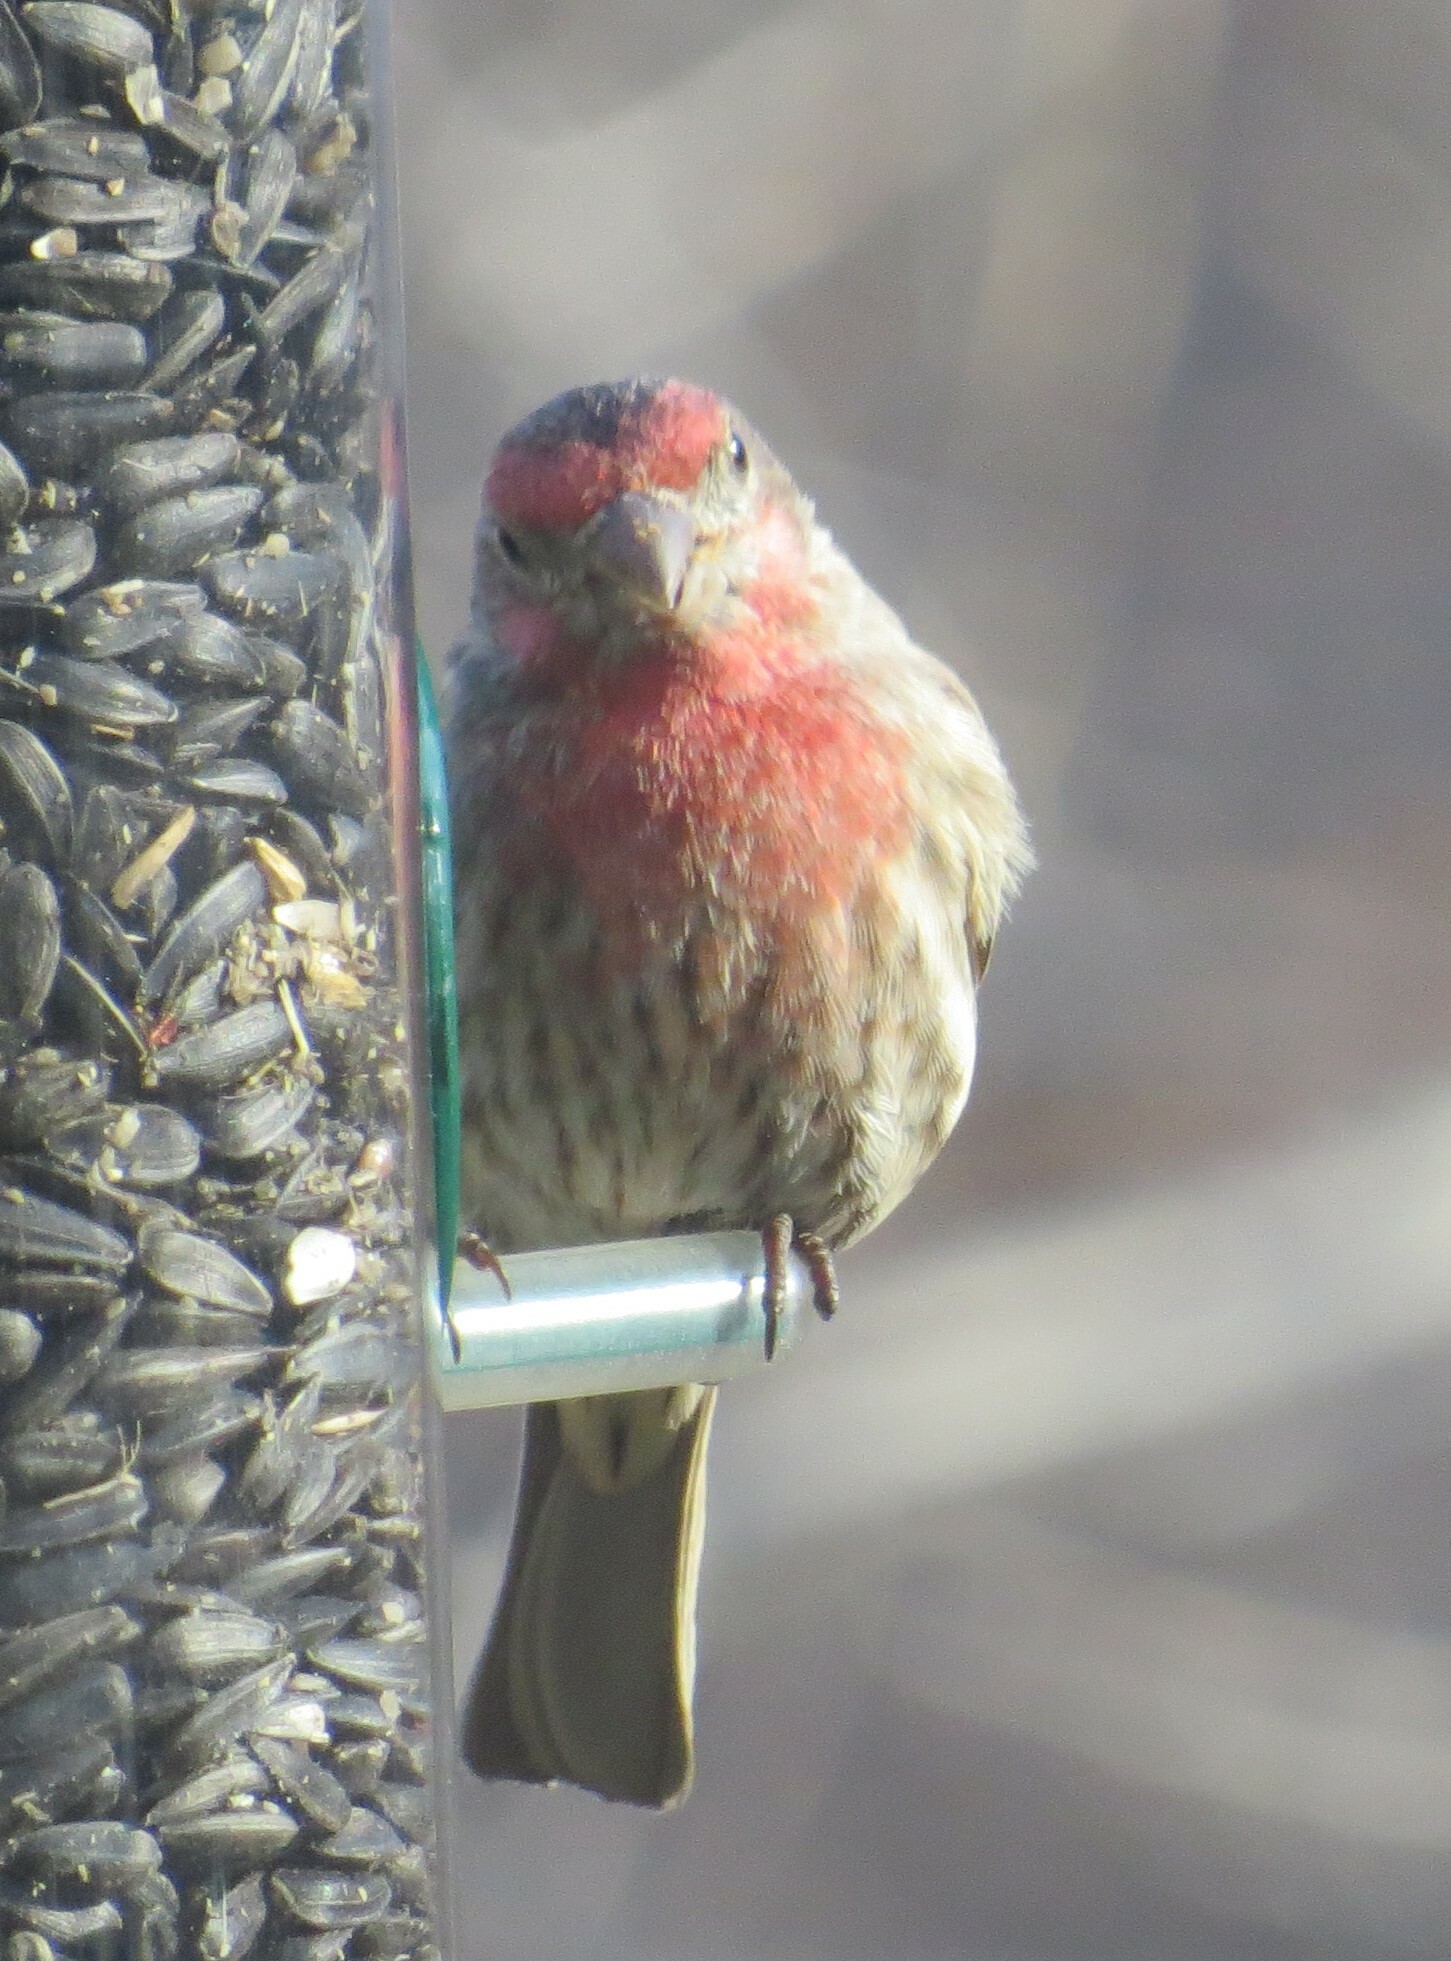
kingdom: Animalia
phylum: Chordata
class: Aves
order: Passeriformes
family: Fringillidae
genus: Haemorhous
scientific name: Haemorhous mexicanus
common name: House finch
